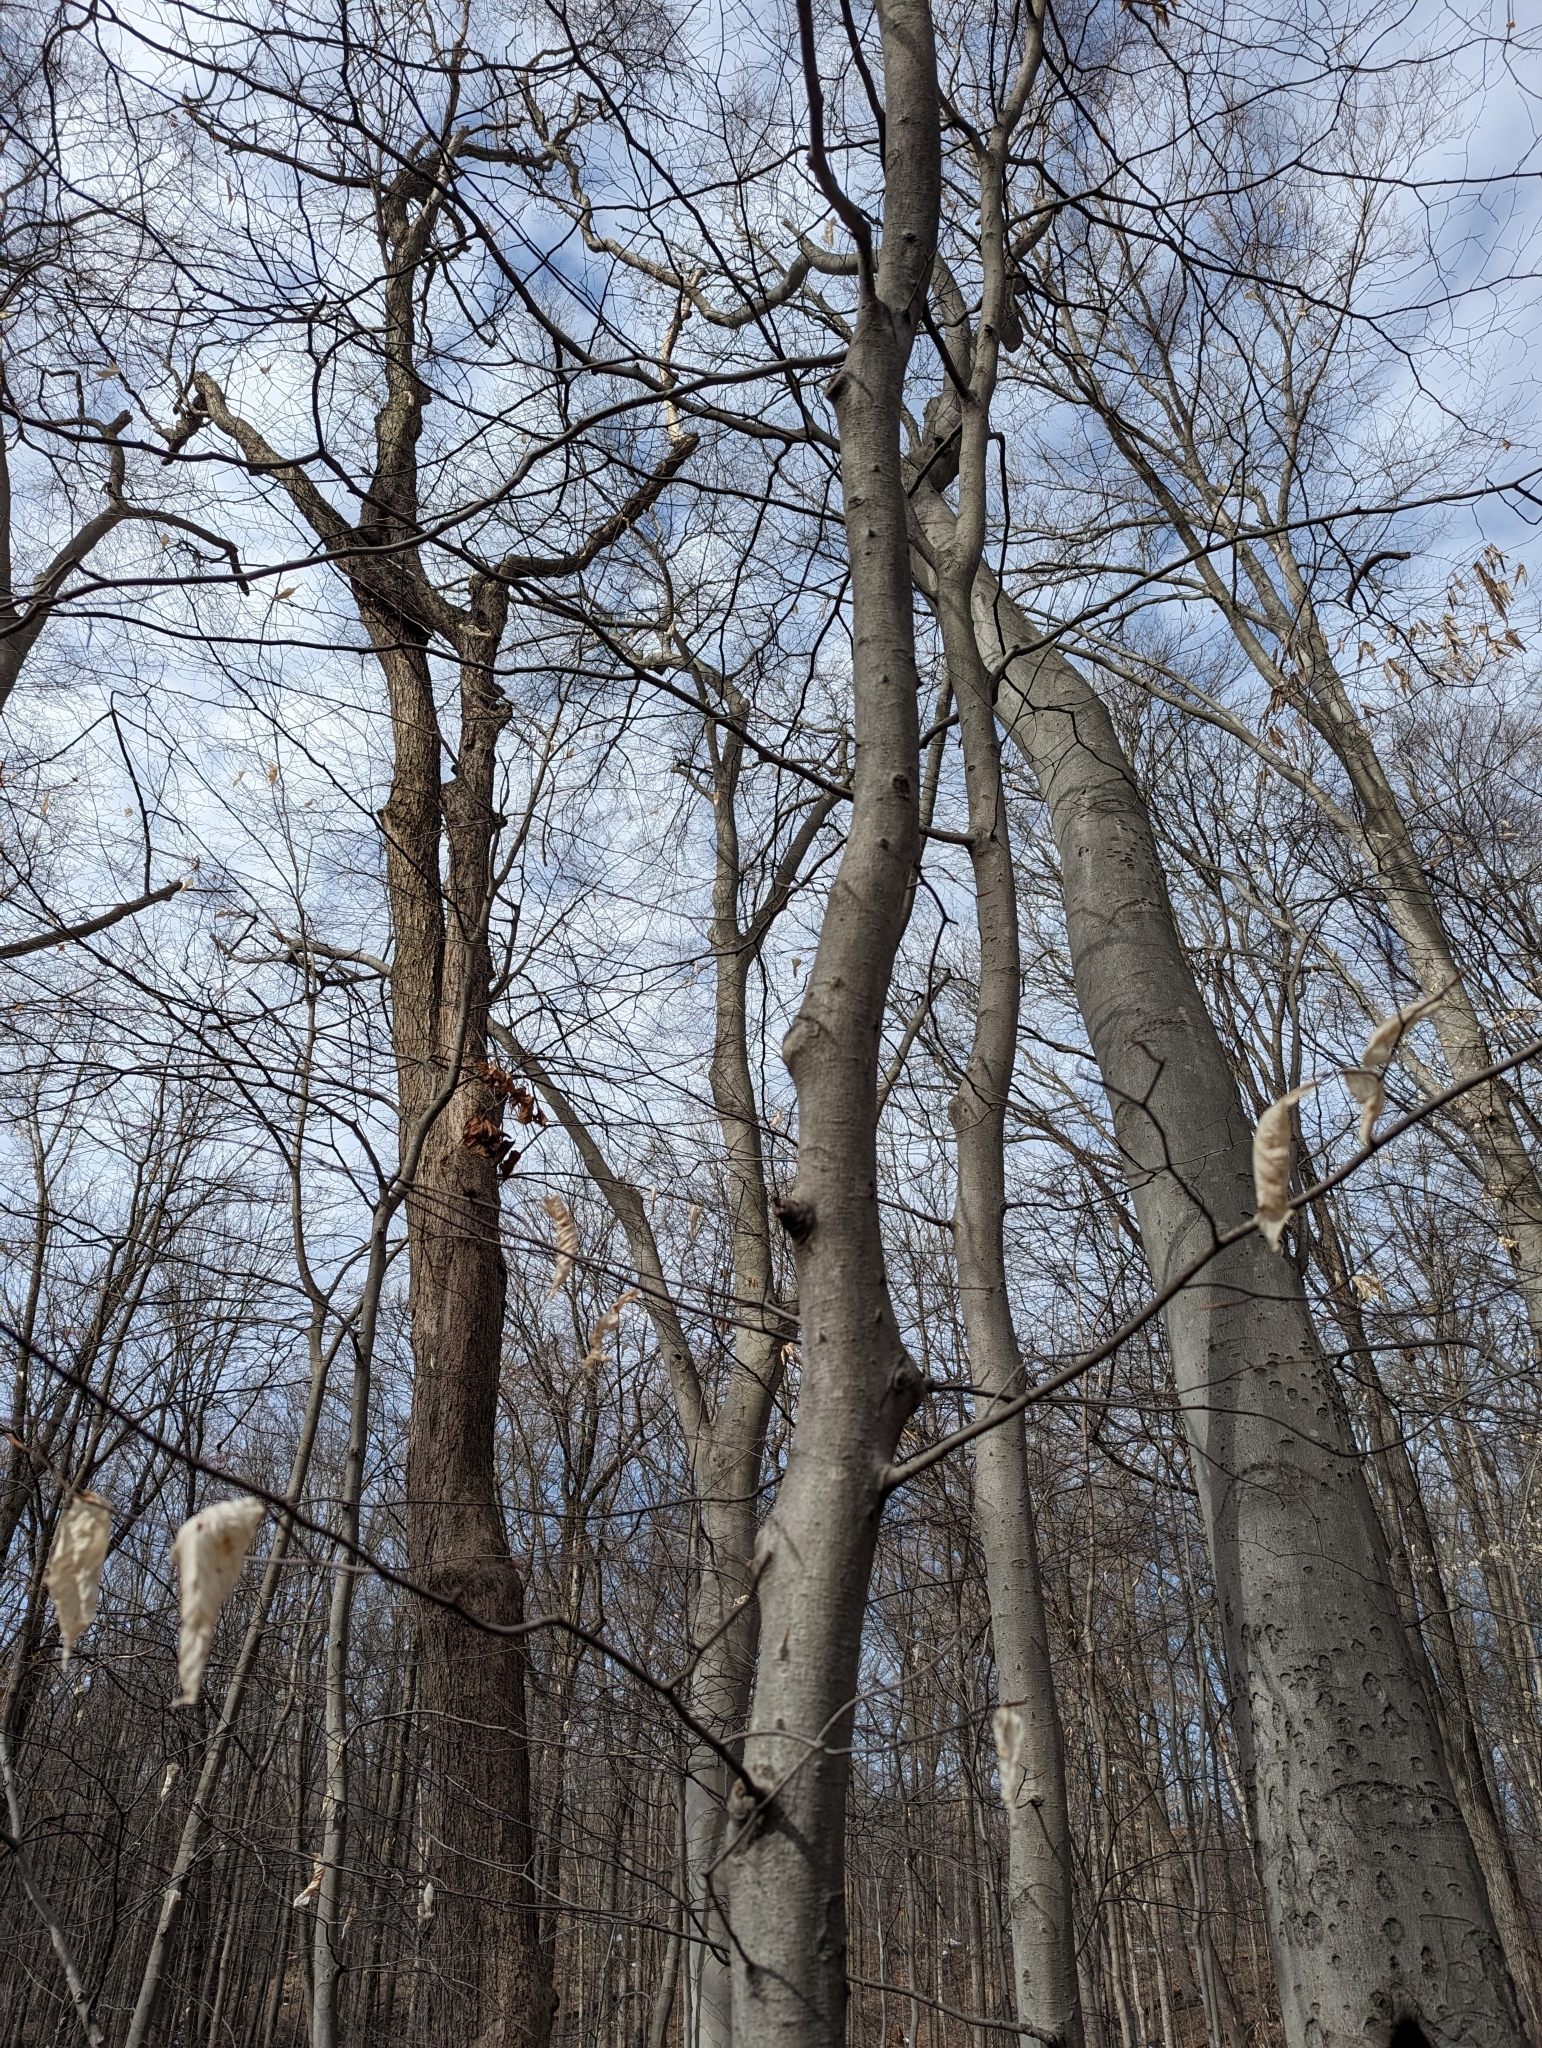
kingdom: Plantae
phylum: Tracheophyta
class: Magnoliopsida
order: Fagales
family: Fagaceae
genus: Fagus
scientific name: Fagus grandifolia
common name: American beech
